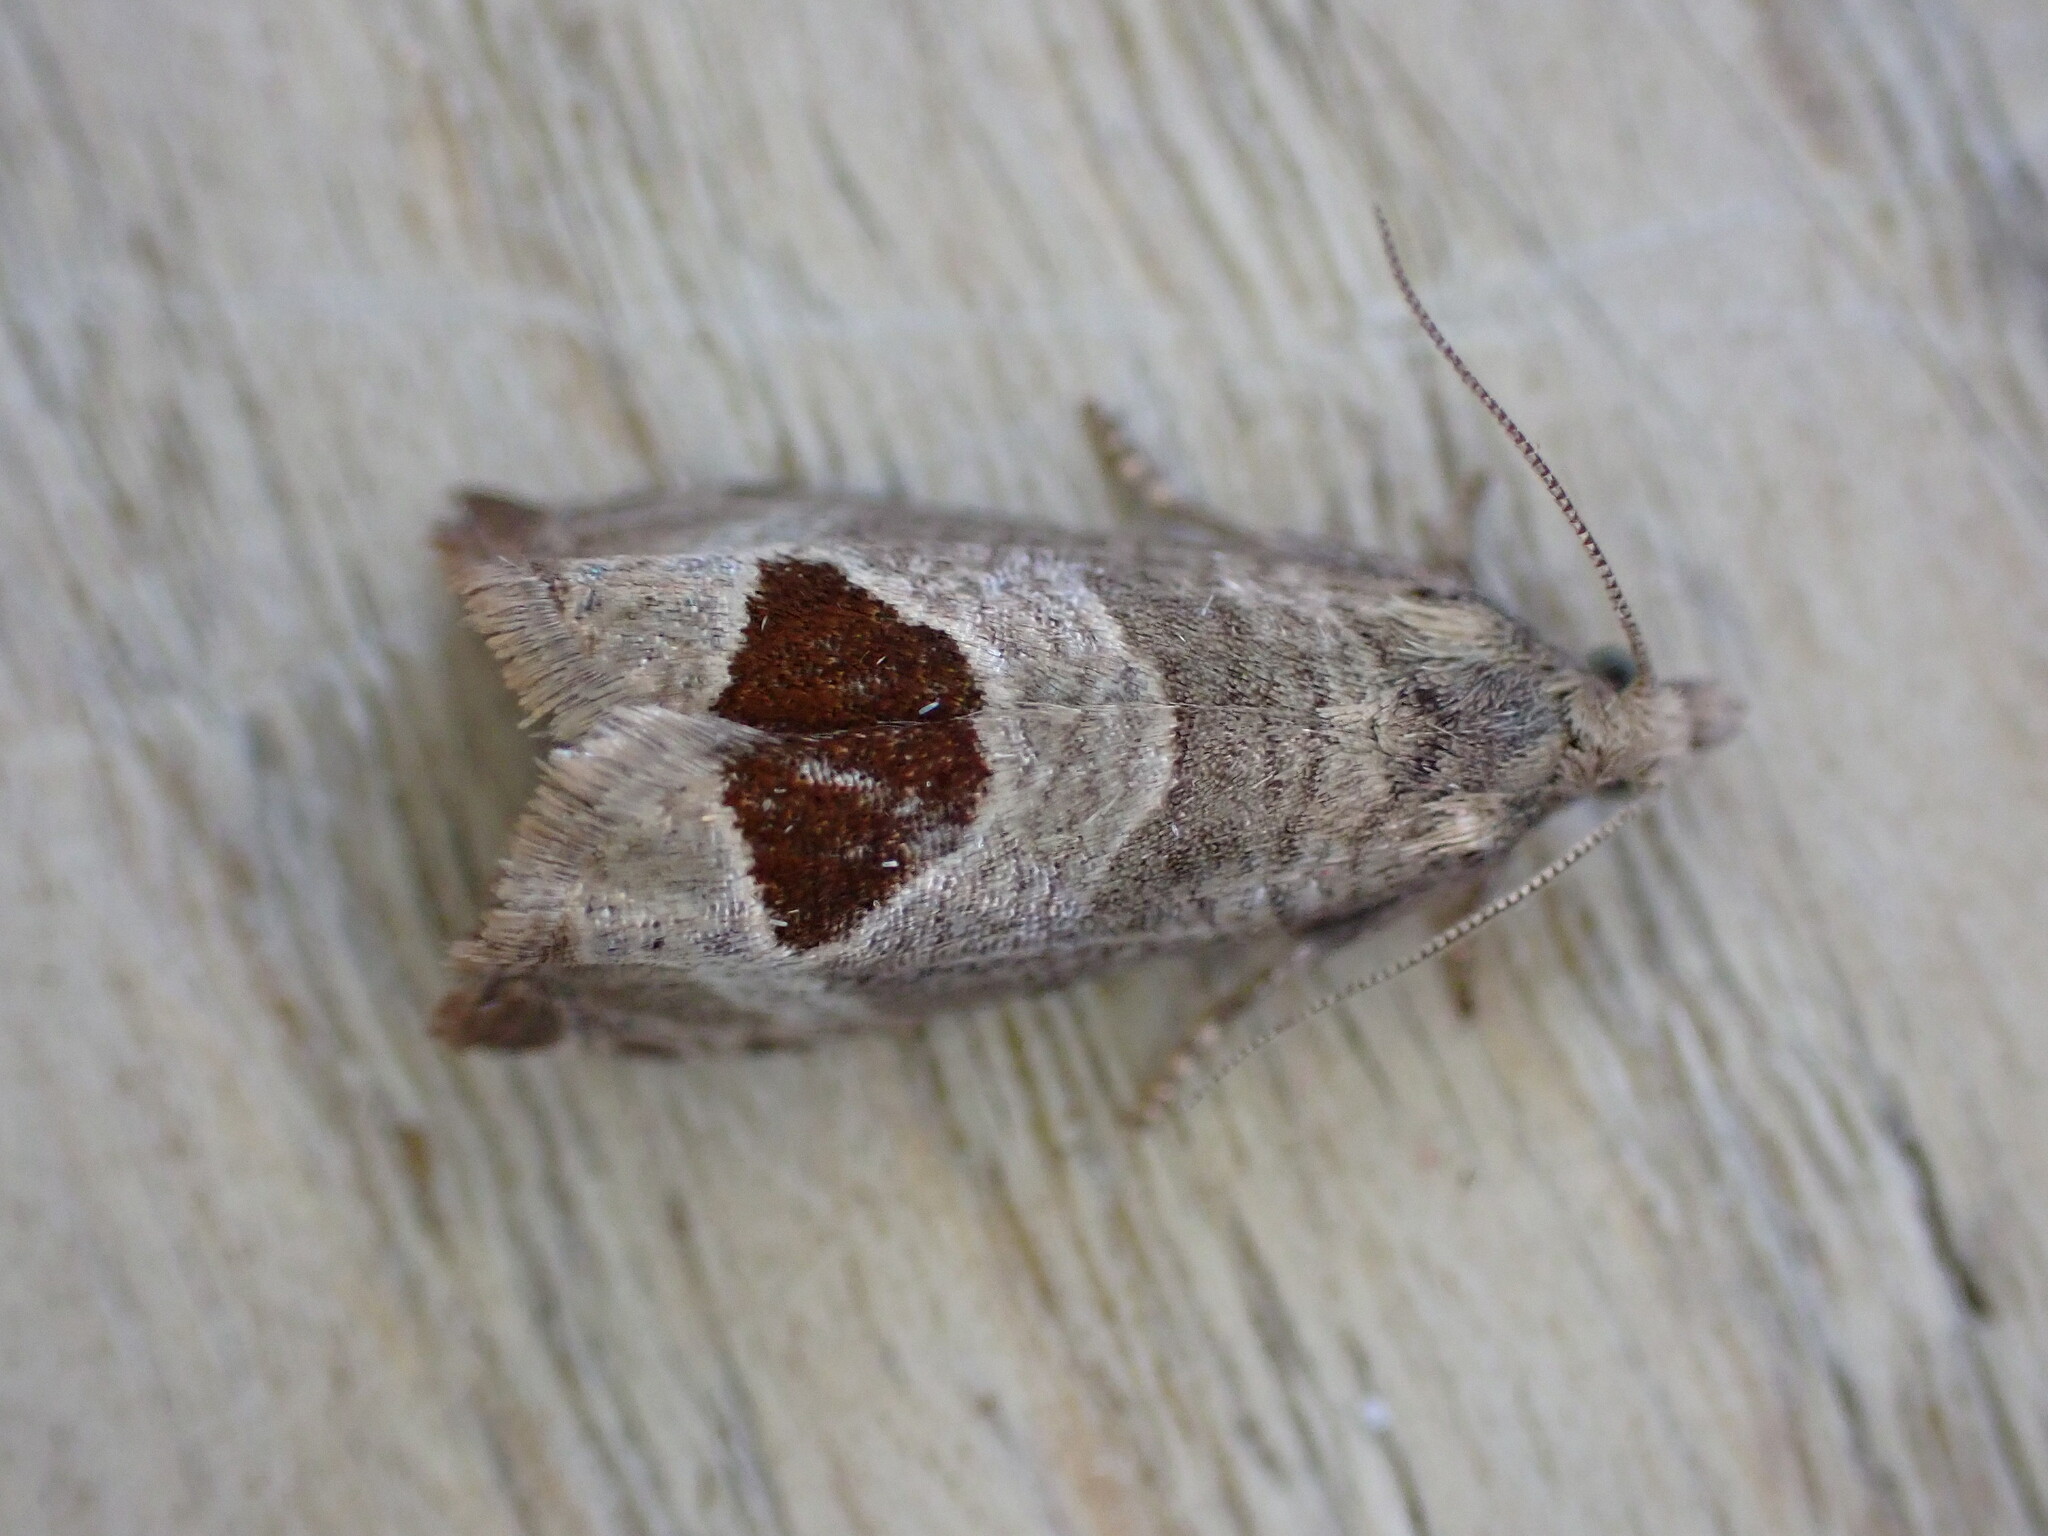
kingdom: Animalia
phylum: Arthropoda
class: Insecta
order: Lepidoptera
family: Tortricidae
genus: Notocelia
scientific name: Notocelia uddmanniana
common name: Bramble shoot moth
